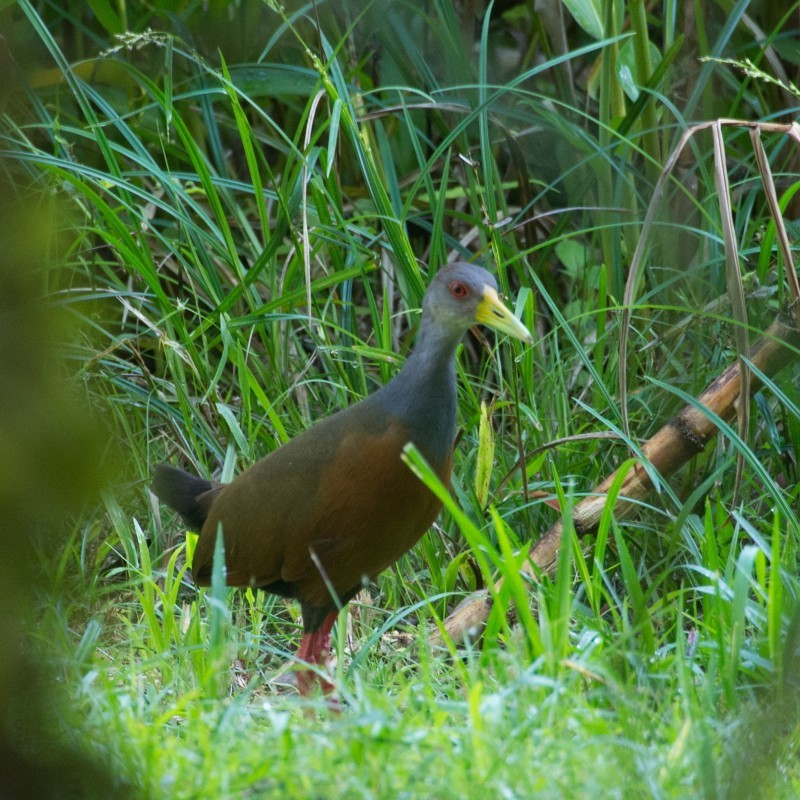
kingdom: Animalia
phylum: Chordata
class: Aves
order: Gruiformes
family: Rallidae
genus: Aramides
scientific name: Aramides cajanea
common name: Gray-necked wood-rail
